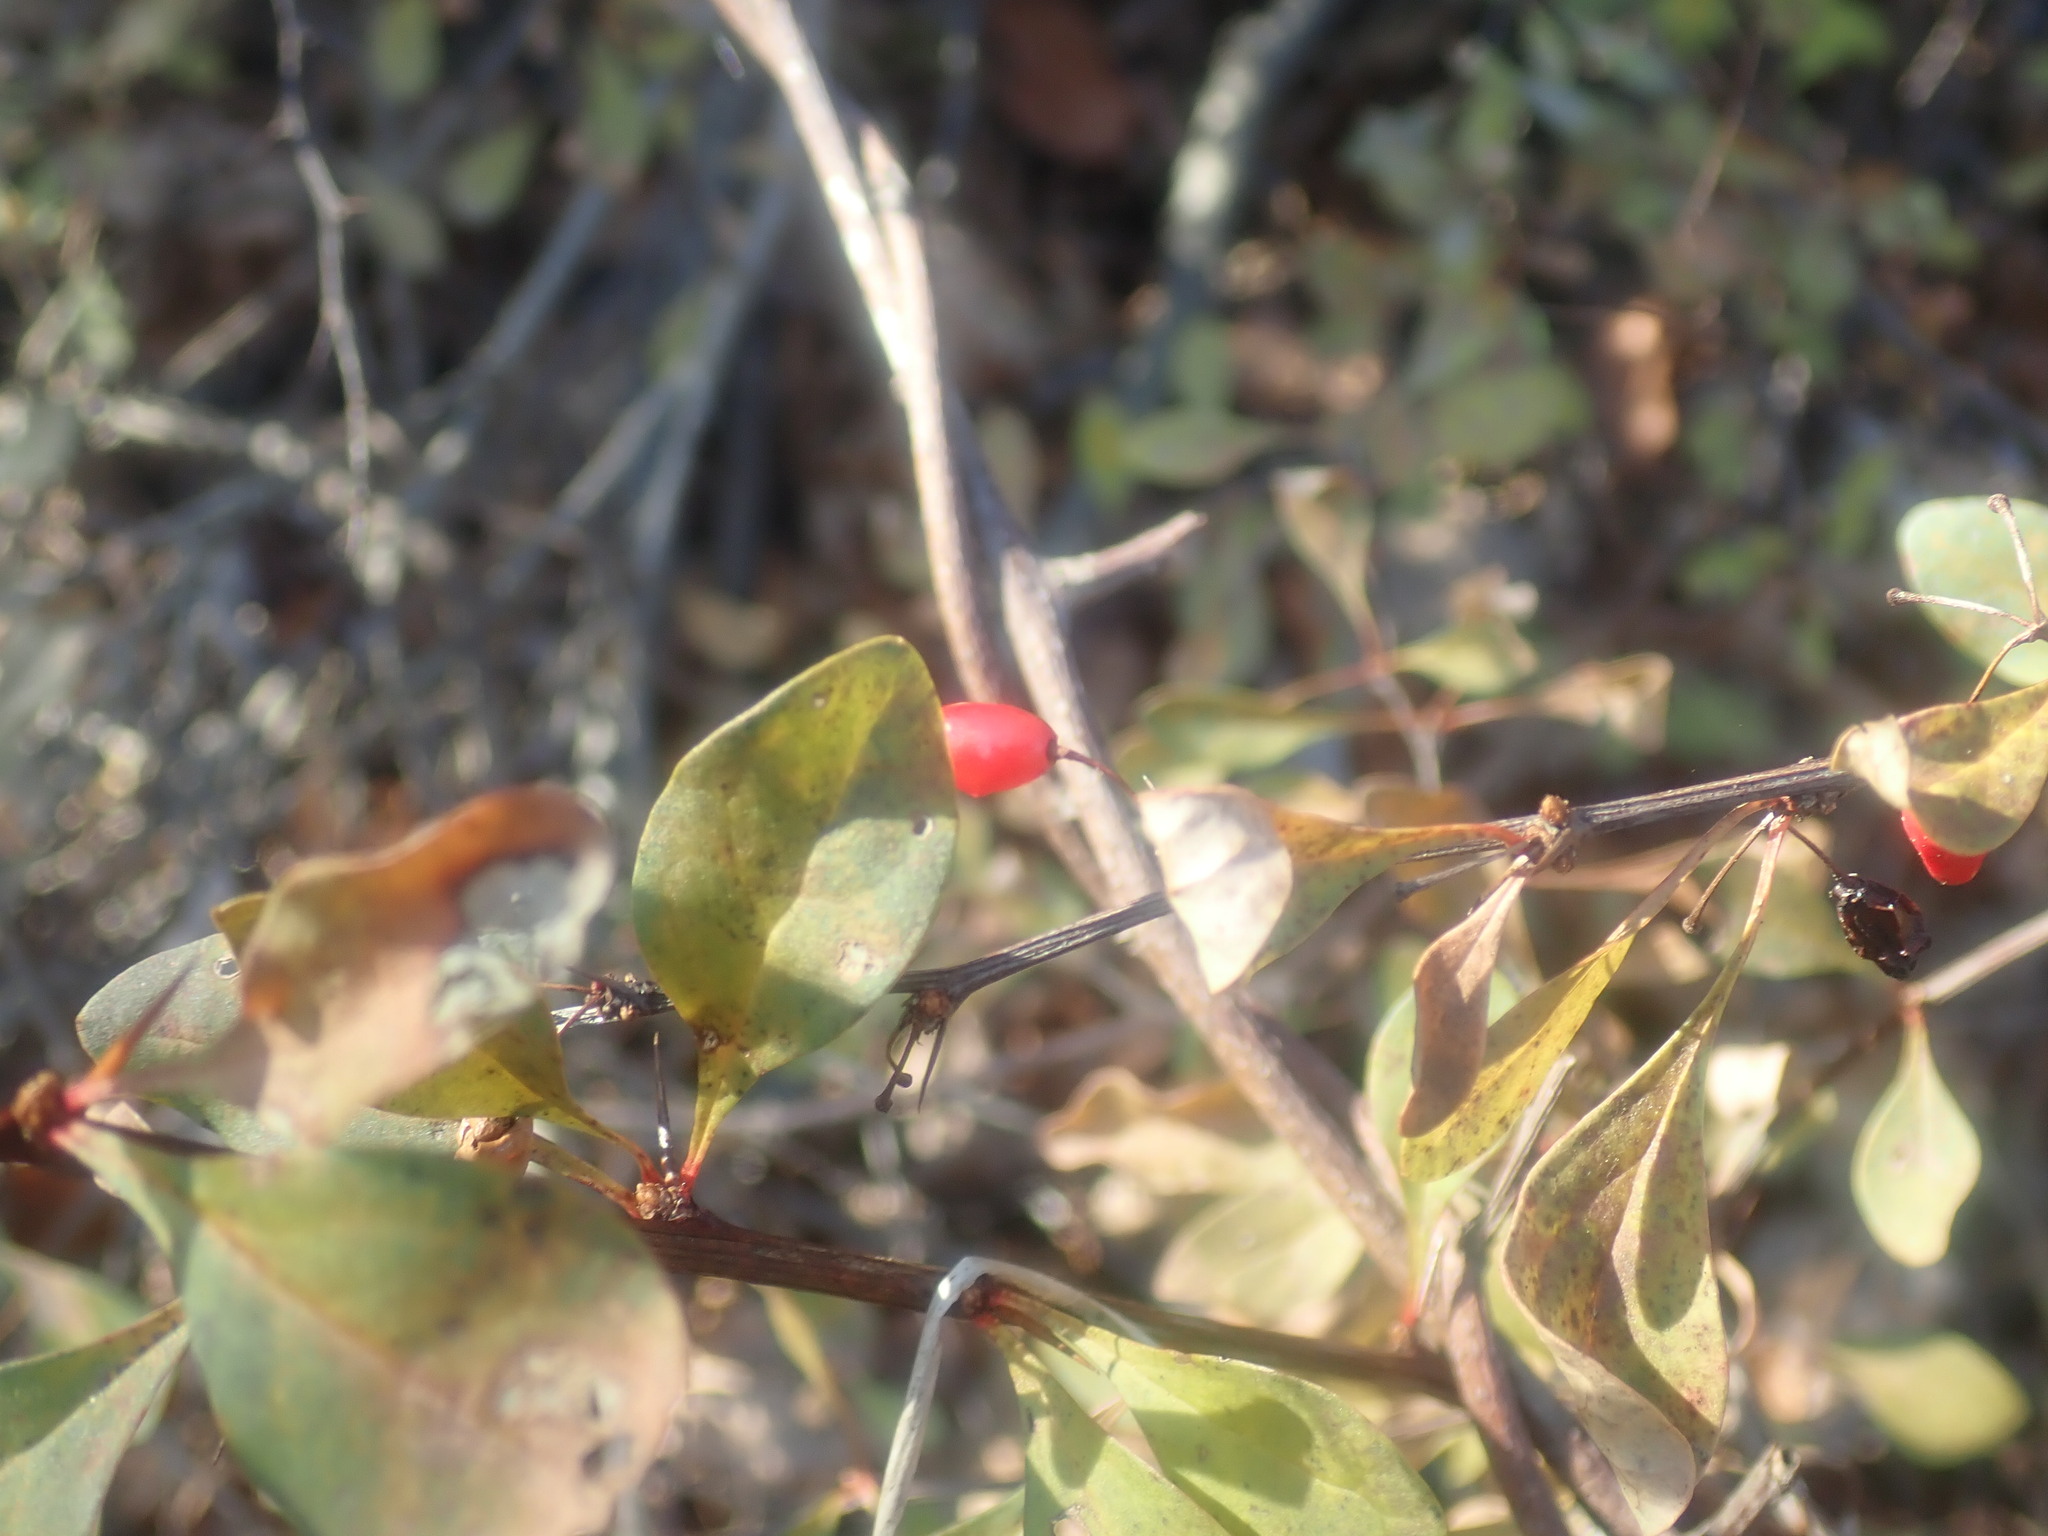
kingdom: Plantae
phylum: Tracheophyta
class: Magnoliopsida
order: Ranunculales
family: Berberidaceae
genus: Berberis
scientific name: Berberis thunbergii
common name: Japanese barberry
